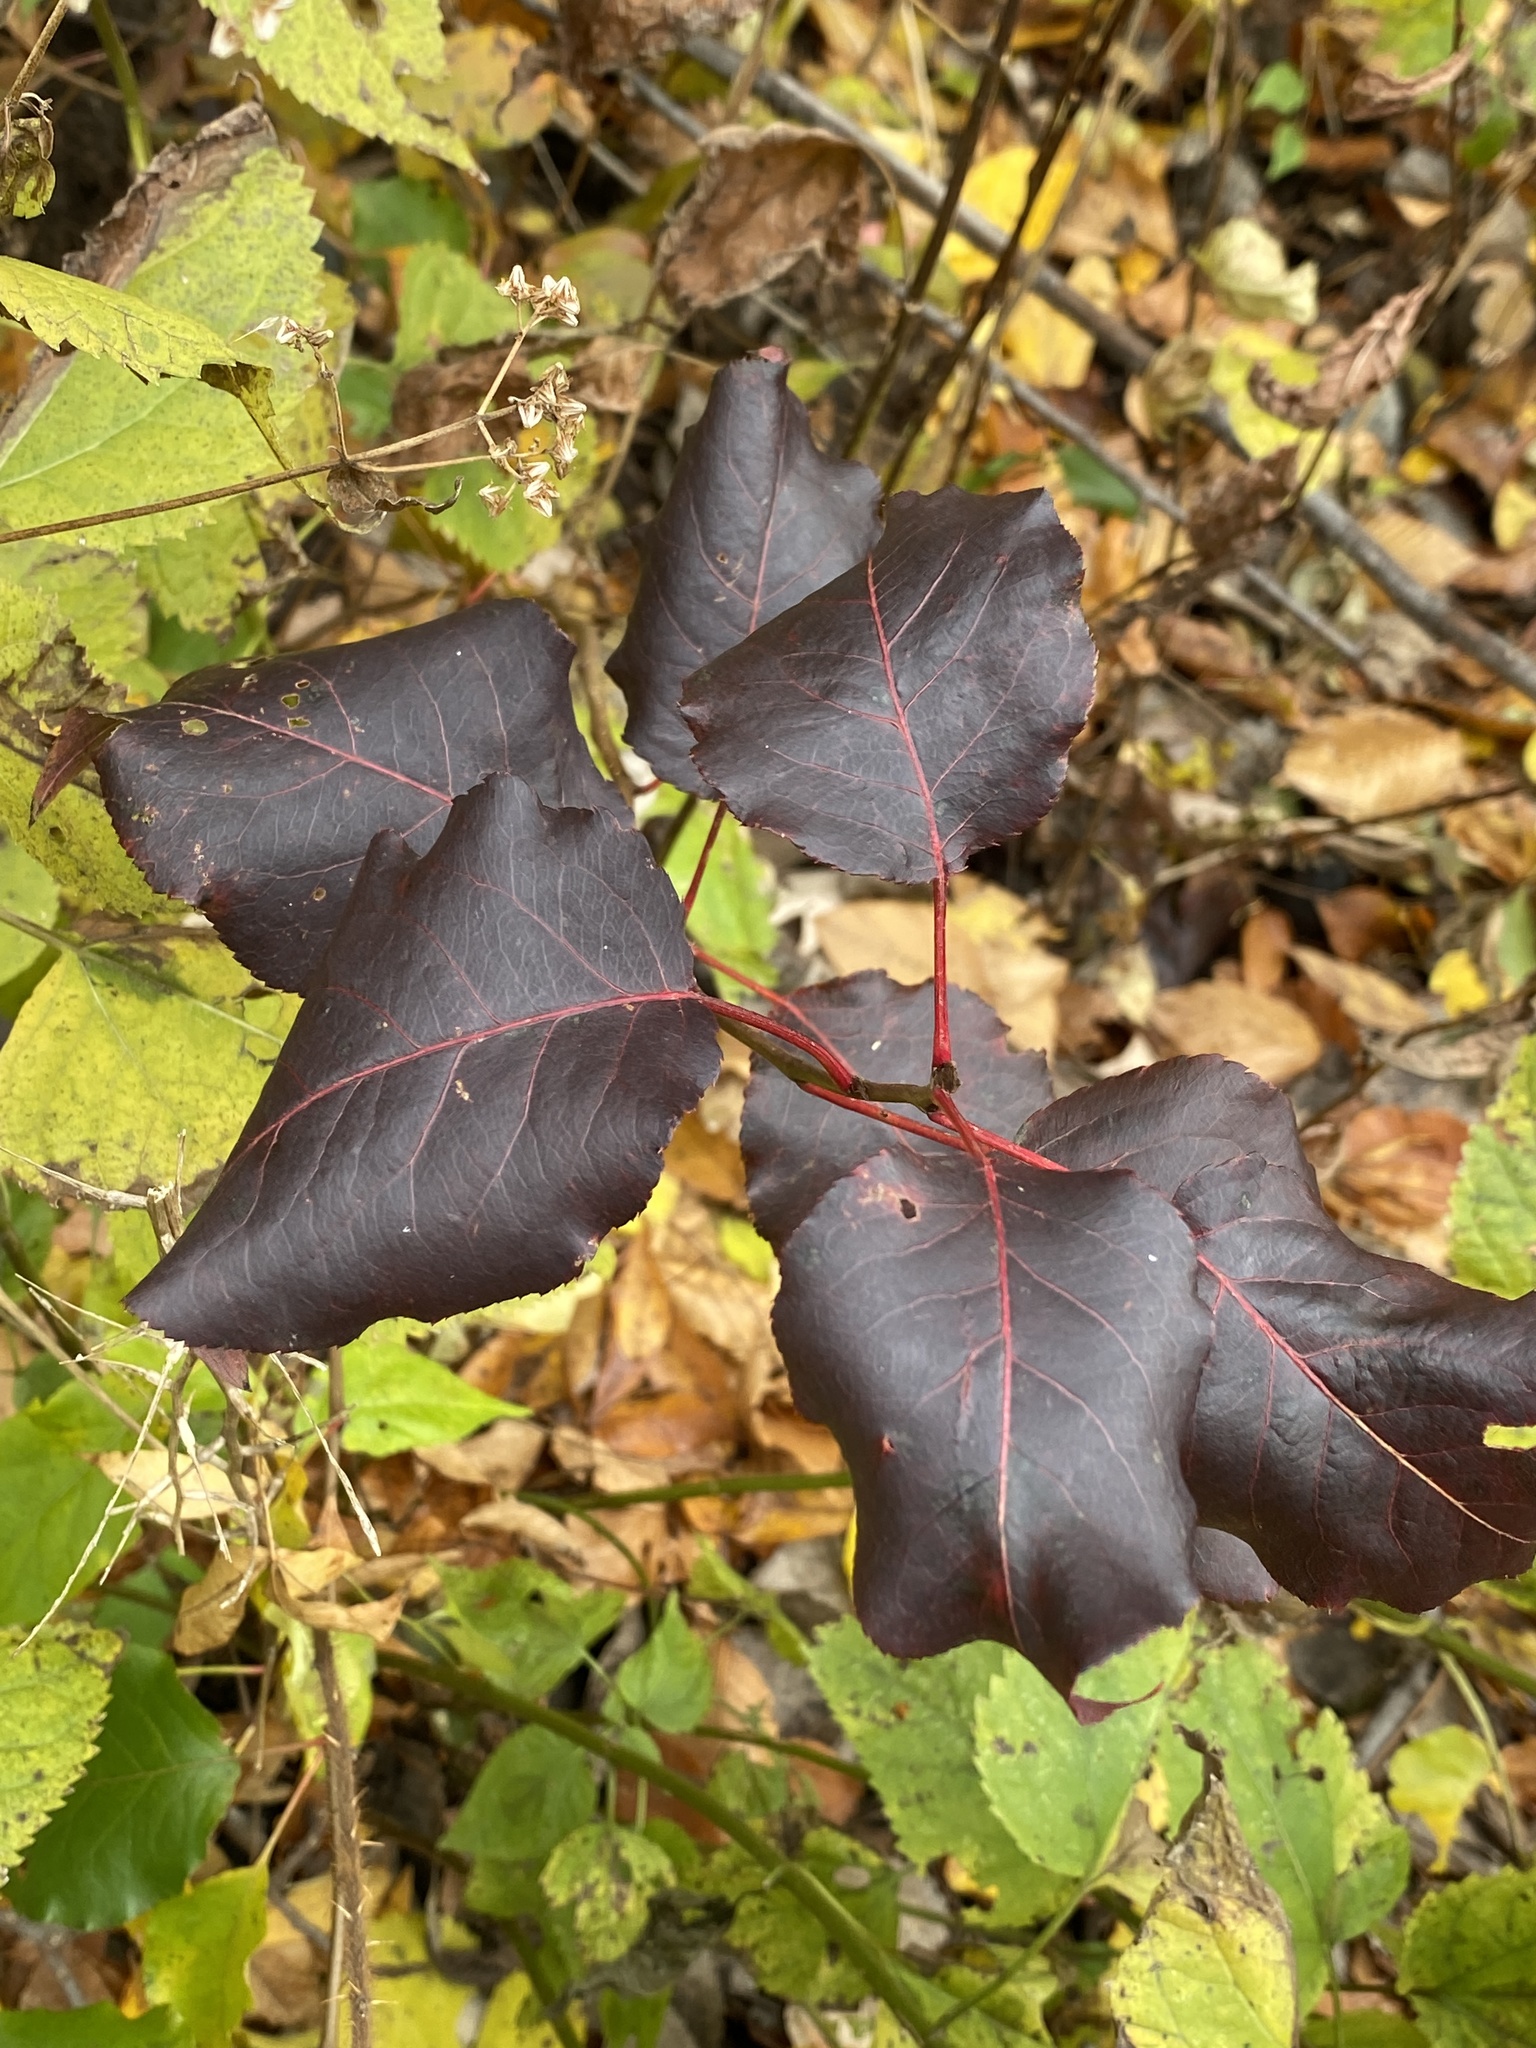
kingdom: Plantae
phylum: Tracheophyta
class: Magnoliopsida
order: Rosales
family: Rosaceae
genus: Pyrus
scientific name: Pyrus calleryana
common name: Callery pear
